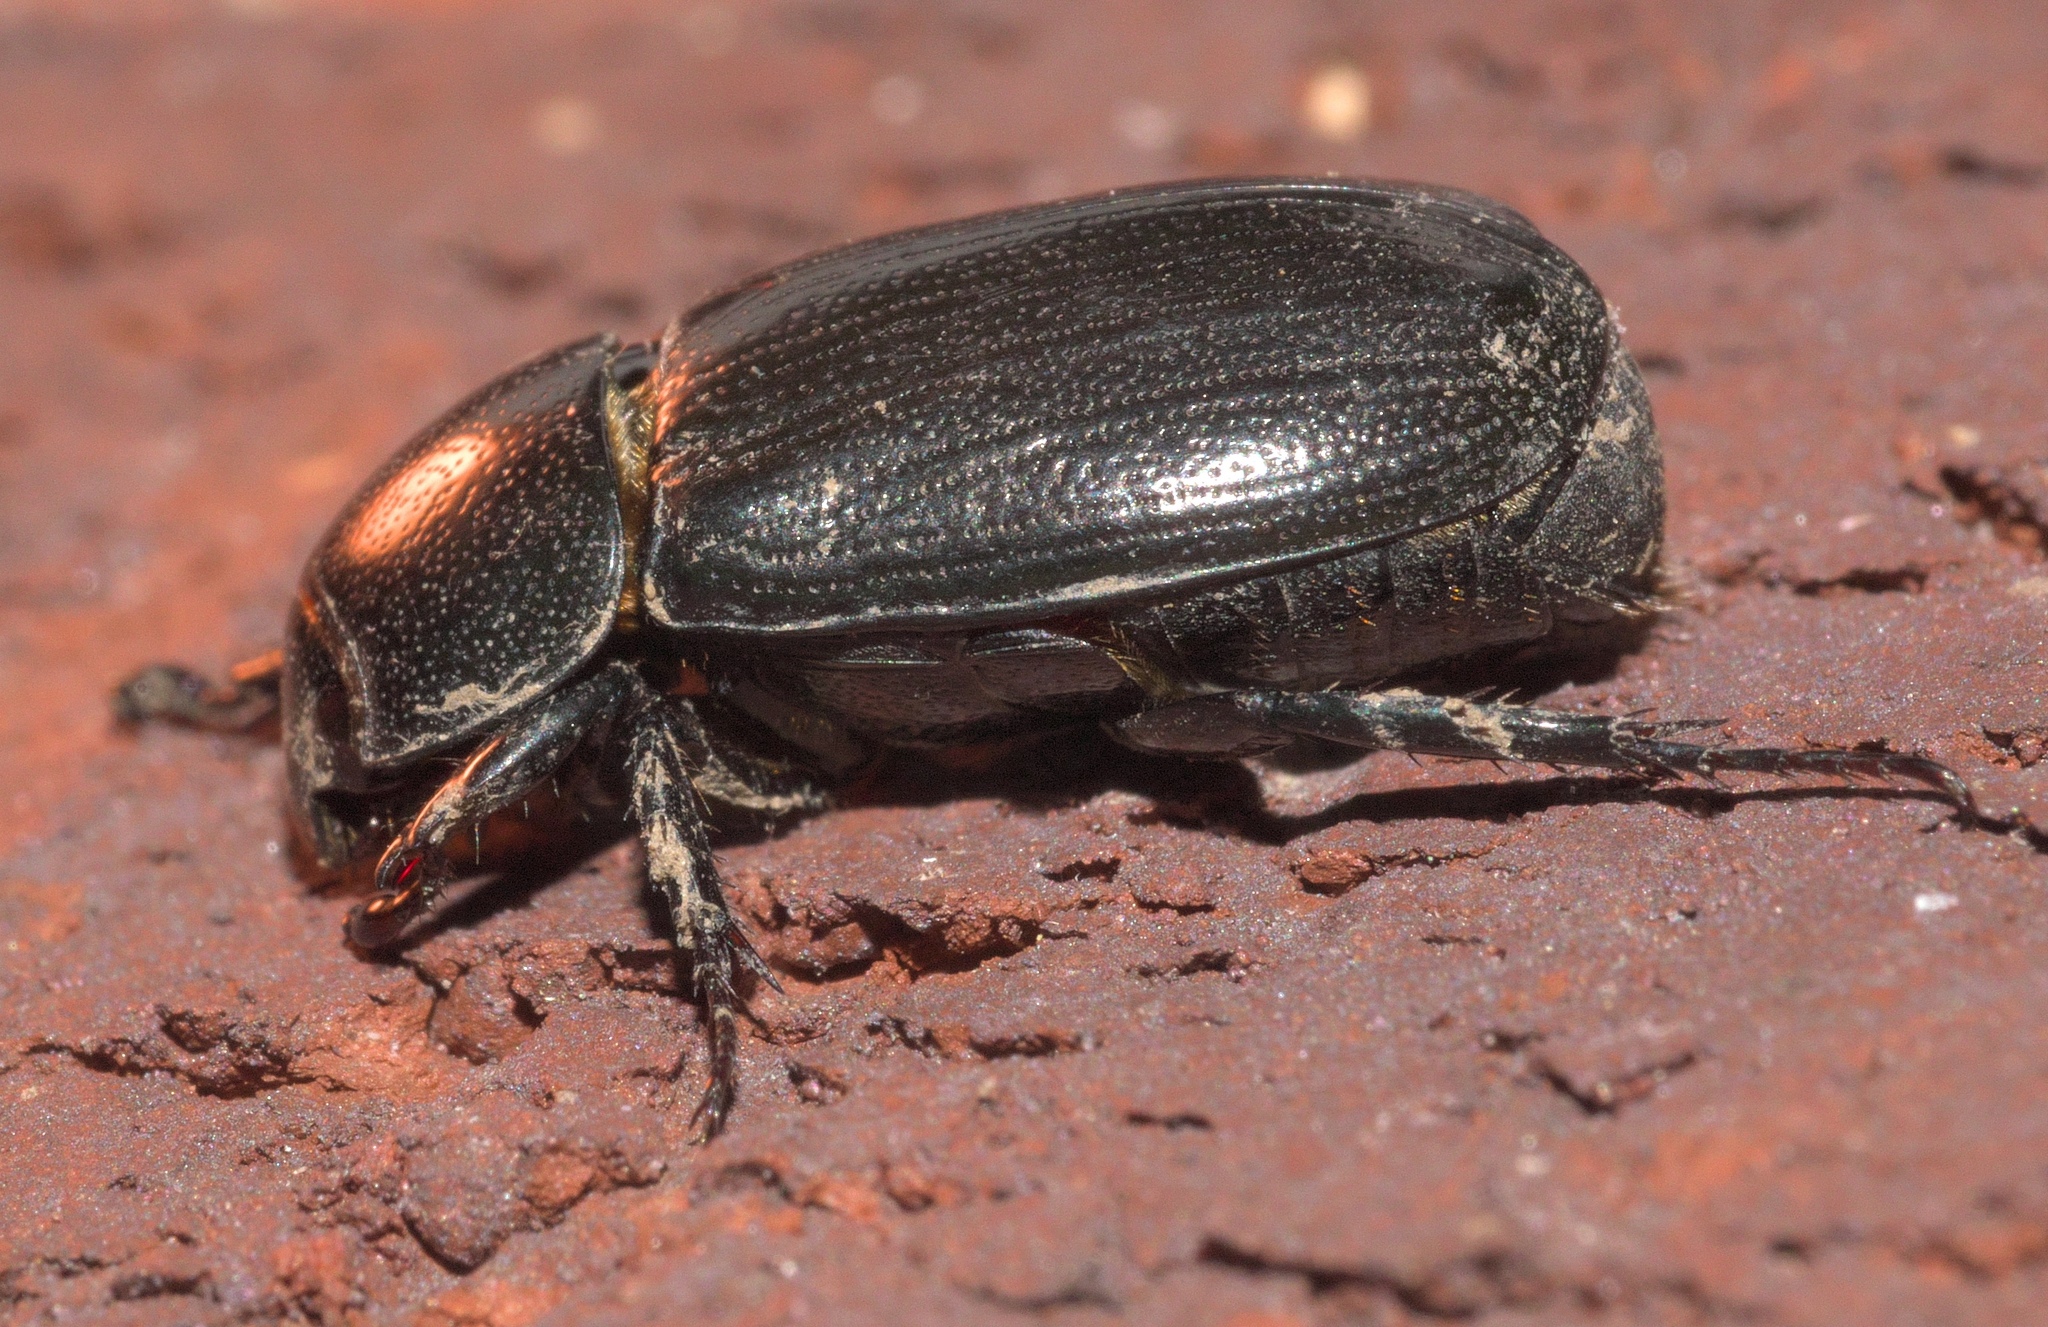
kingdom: Animalia
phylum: Arthropoda
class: Insecta
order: Coleoptera
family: Scarabaeidae
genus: Dyscinetus
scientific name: Dyscinetus morator
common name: Rice beetle
